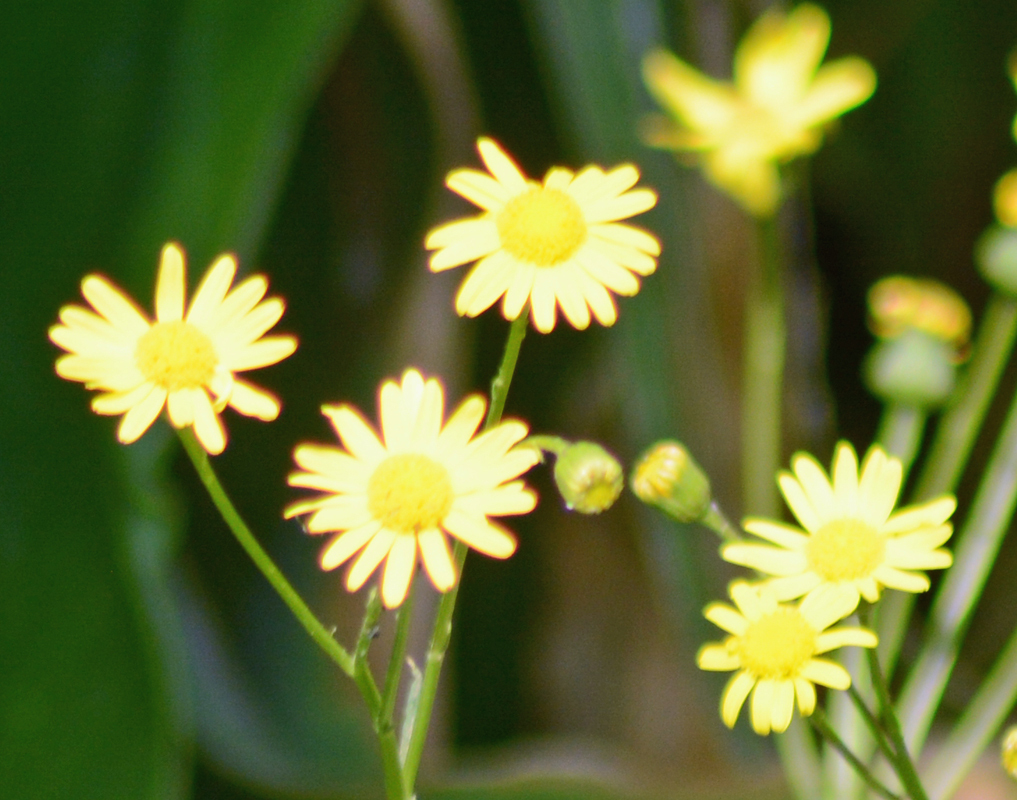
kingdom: Plantae
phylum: Tracheophyta
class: Magnoliopsida
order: Asterales
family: Asteraceae
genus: Senecio
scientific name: Senecio inaequidens
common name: Narrow-leaved ragwort
